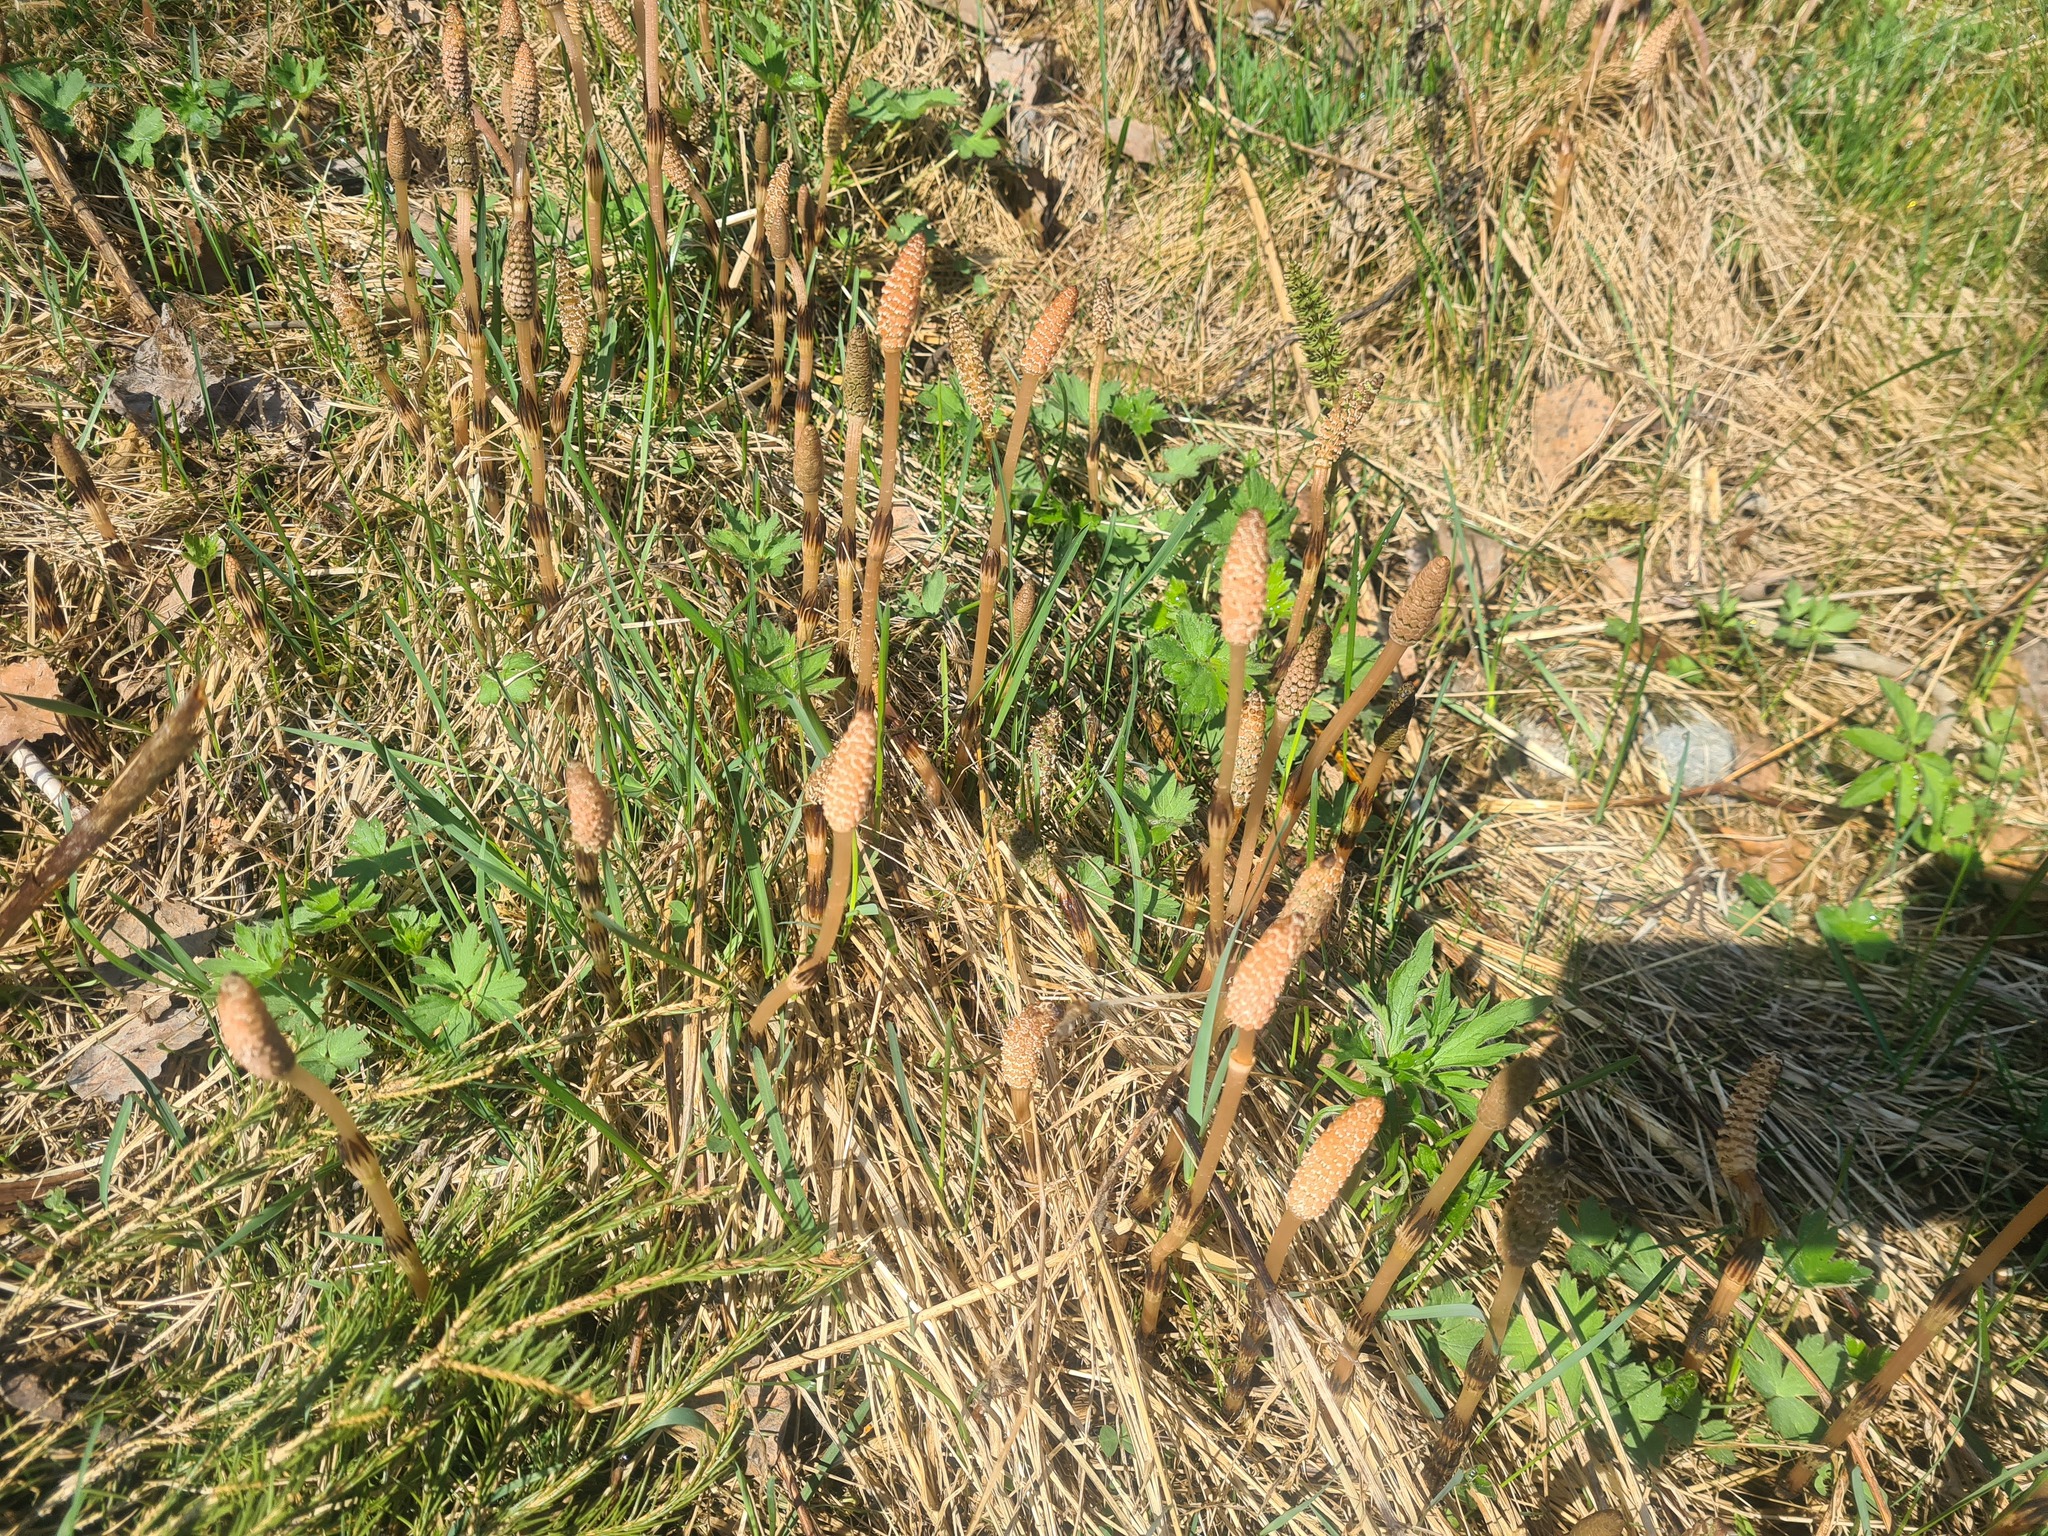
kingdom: Plantae
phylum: Tracheophyta
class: Polypodiopsida
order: Equisetales
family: Equisetaceae
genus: Equisetum
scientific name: Equisetum arvense
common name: Field horsetail
